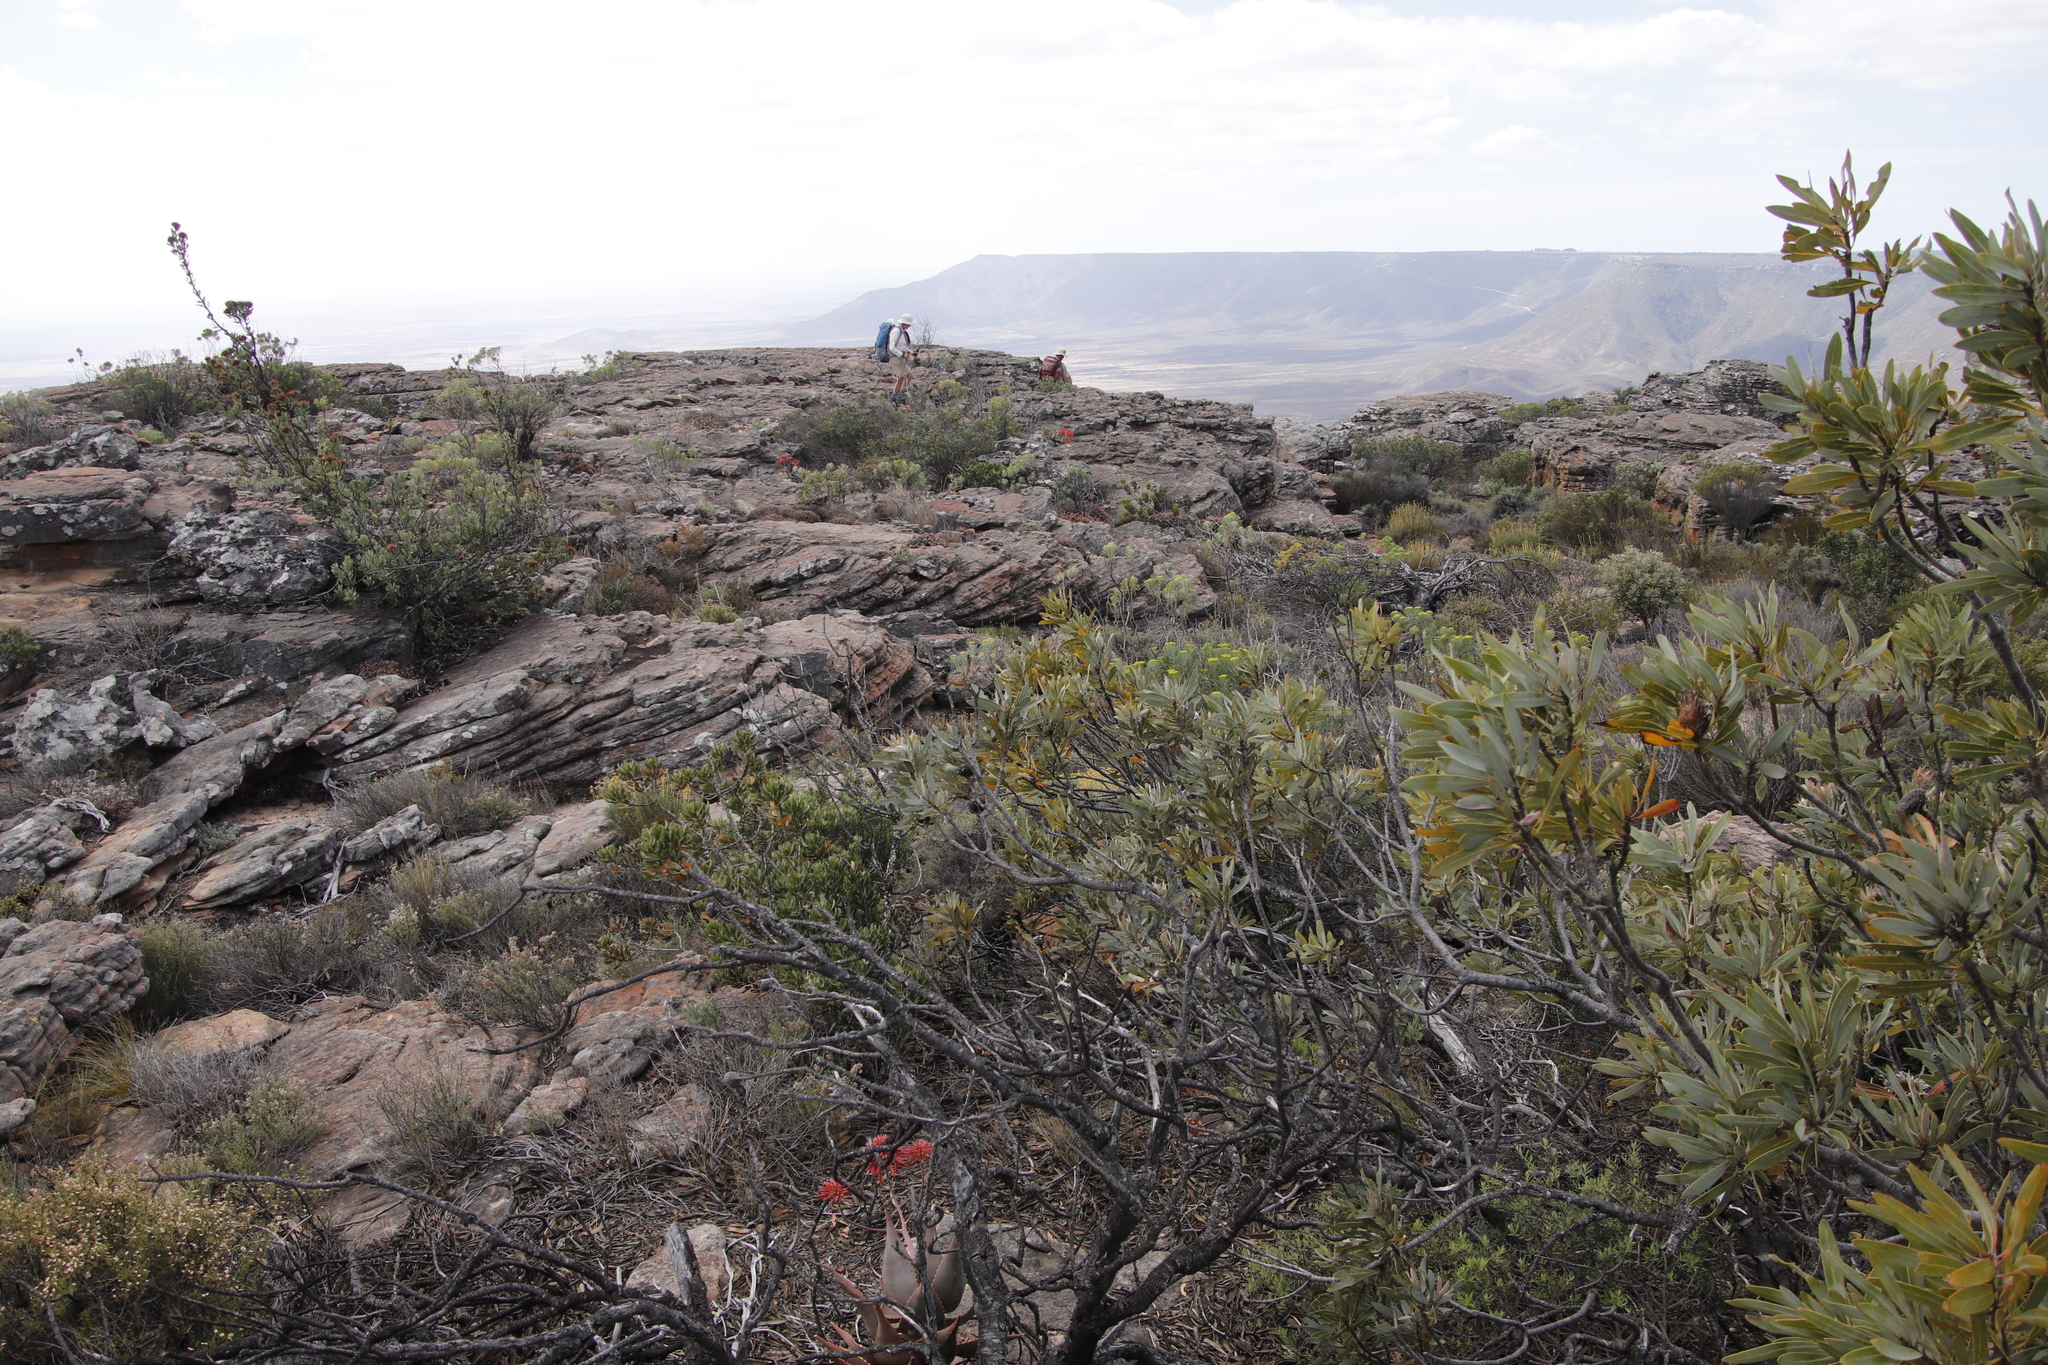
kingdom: Plantae
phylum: Tracheophyta
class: Magnoliopsida
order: Proteales
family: Proteaceae
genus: Protea
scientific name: Protea laurifolia
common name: Grey-leaf sugarbsh
